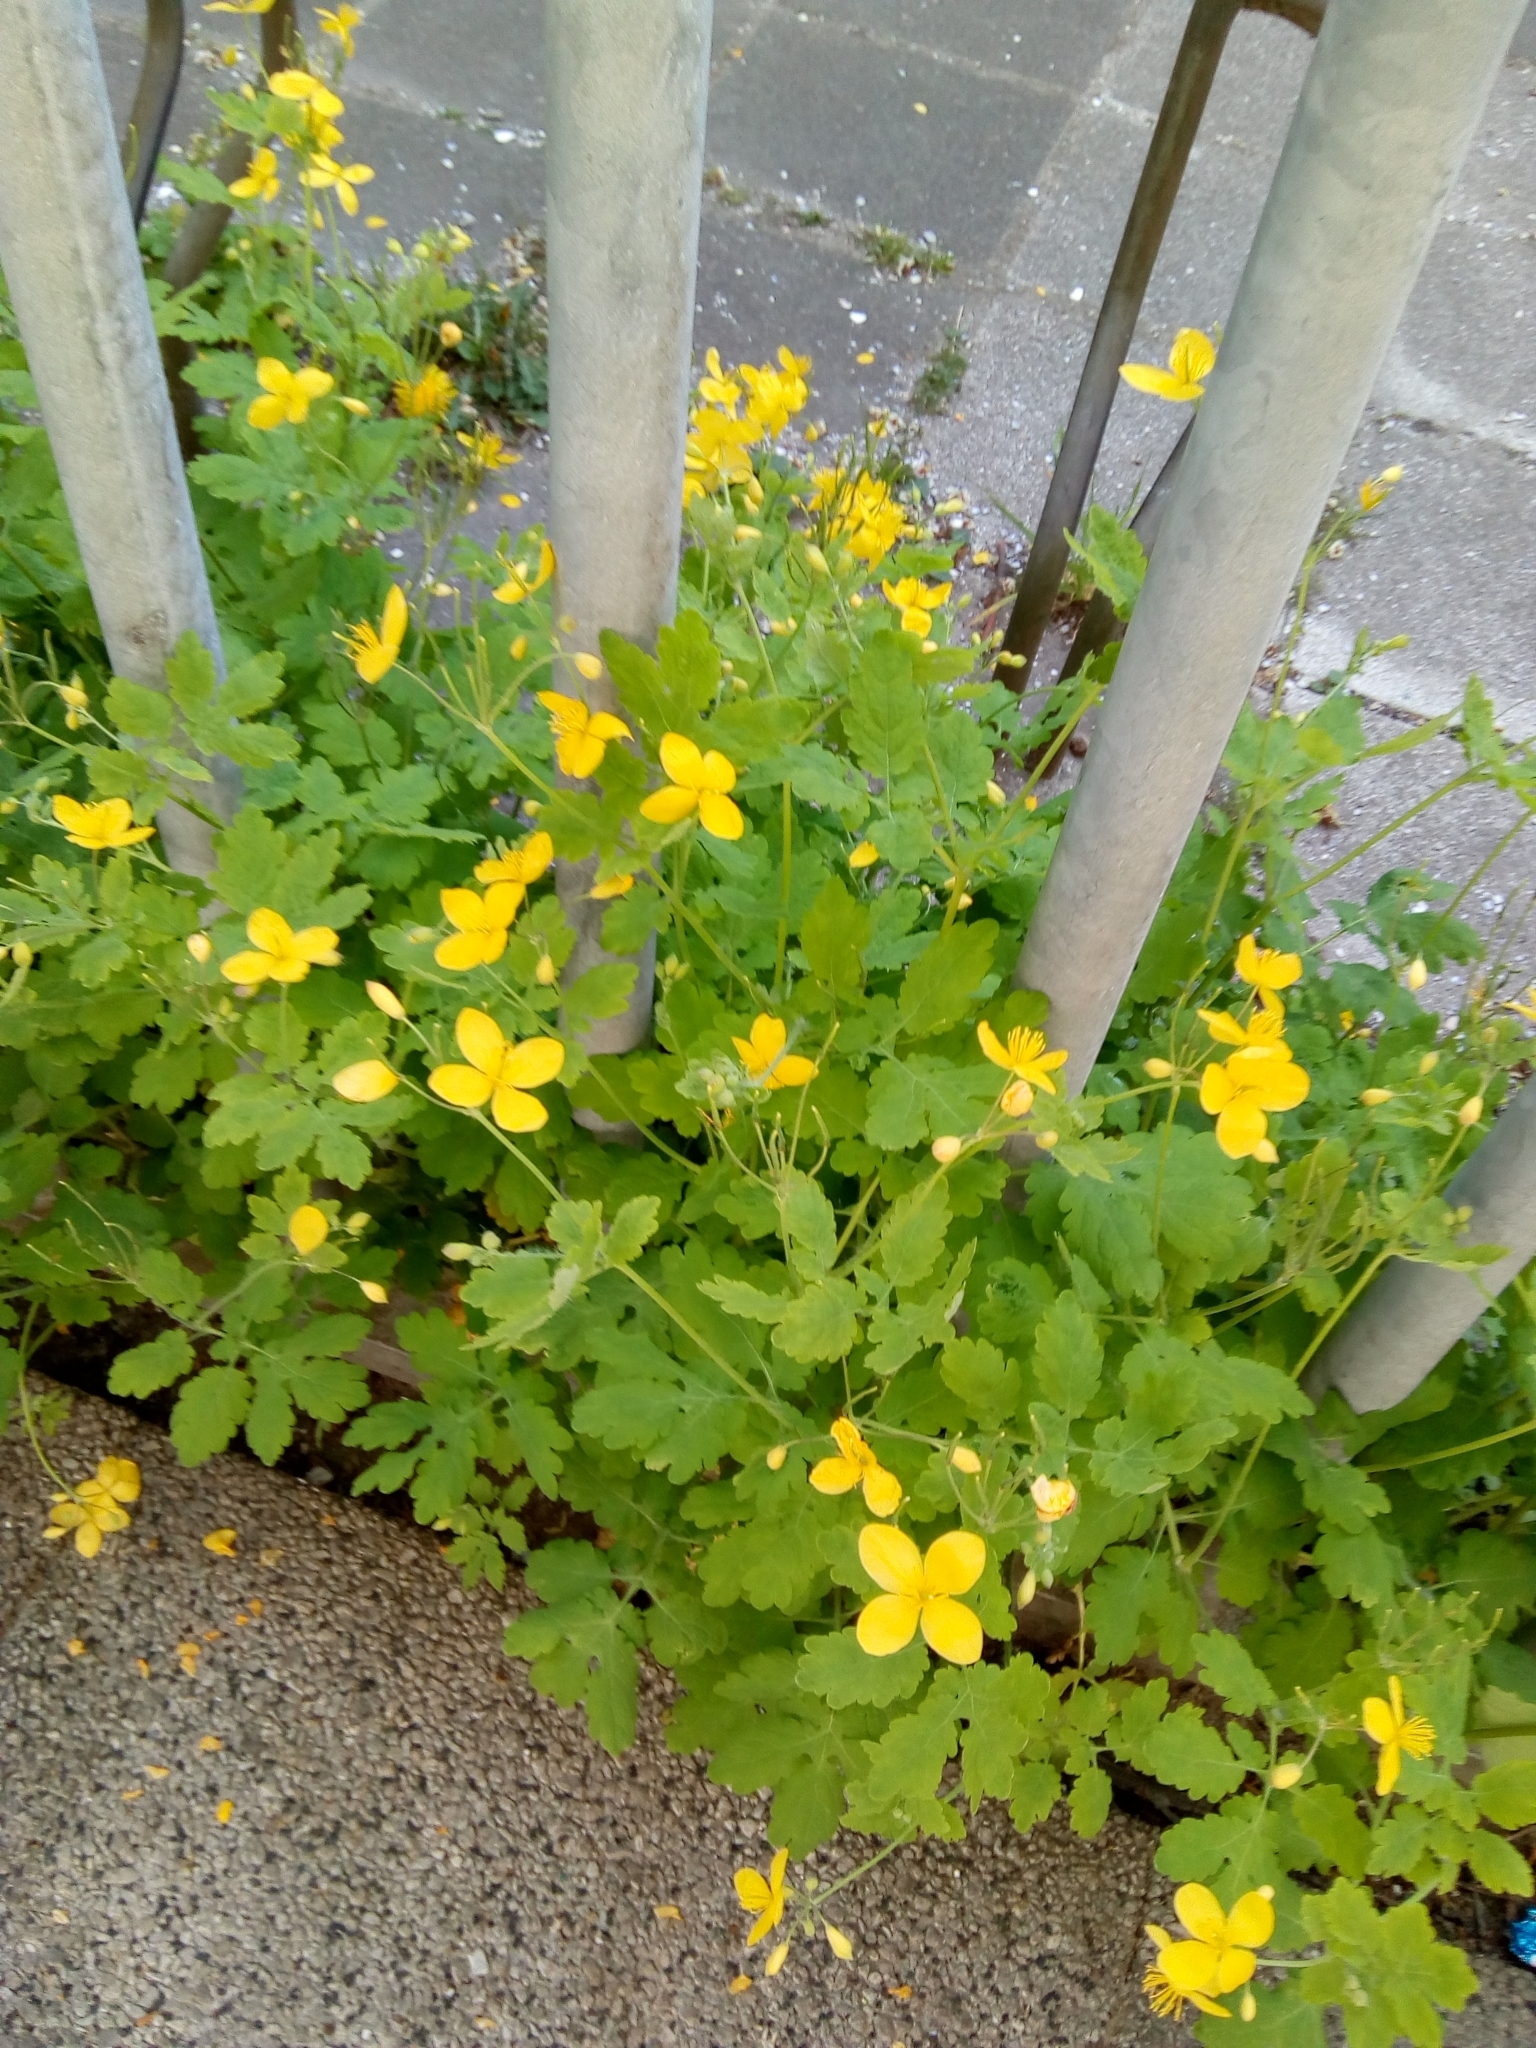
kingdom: Plantae
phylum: Tracheophyta
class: Magnoliopsida
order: Ranunculales
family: Papaveraceae
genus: Chelidonium
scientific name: Chelidonium majus
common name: Greater celandine
